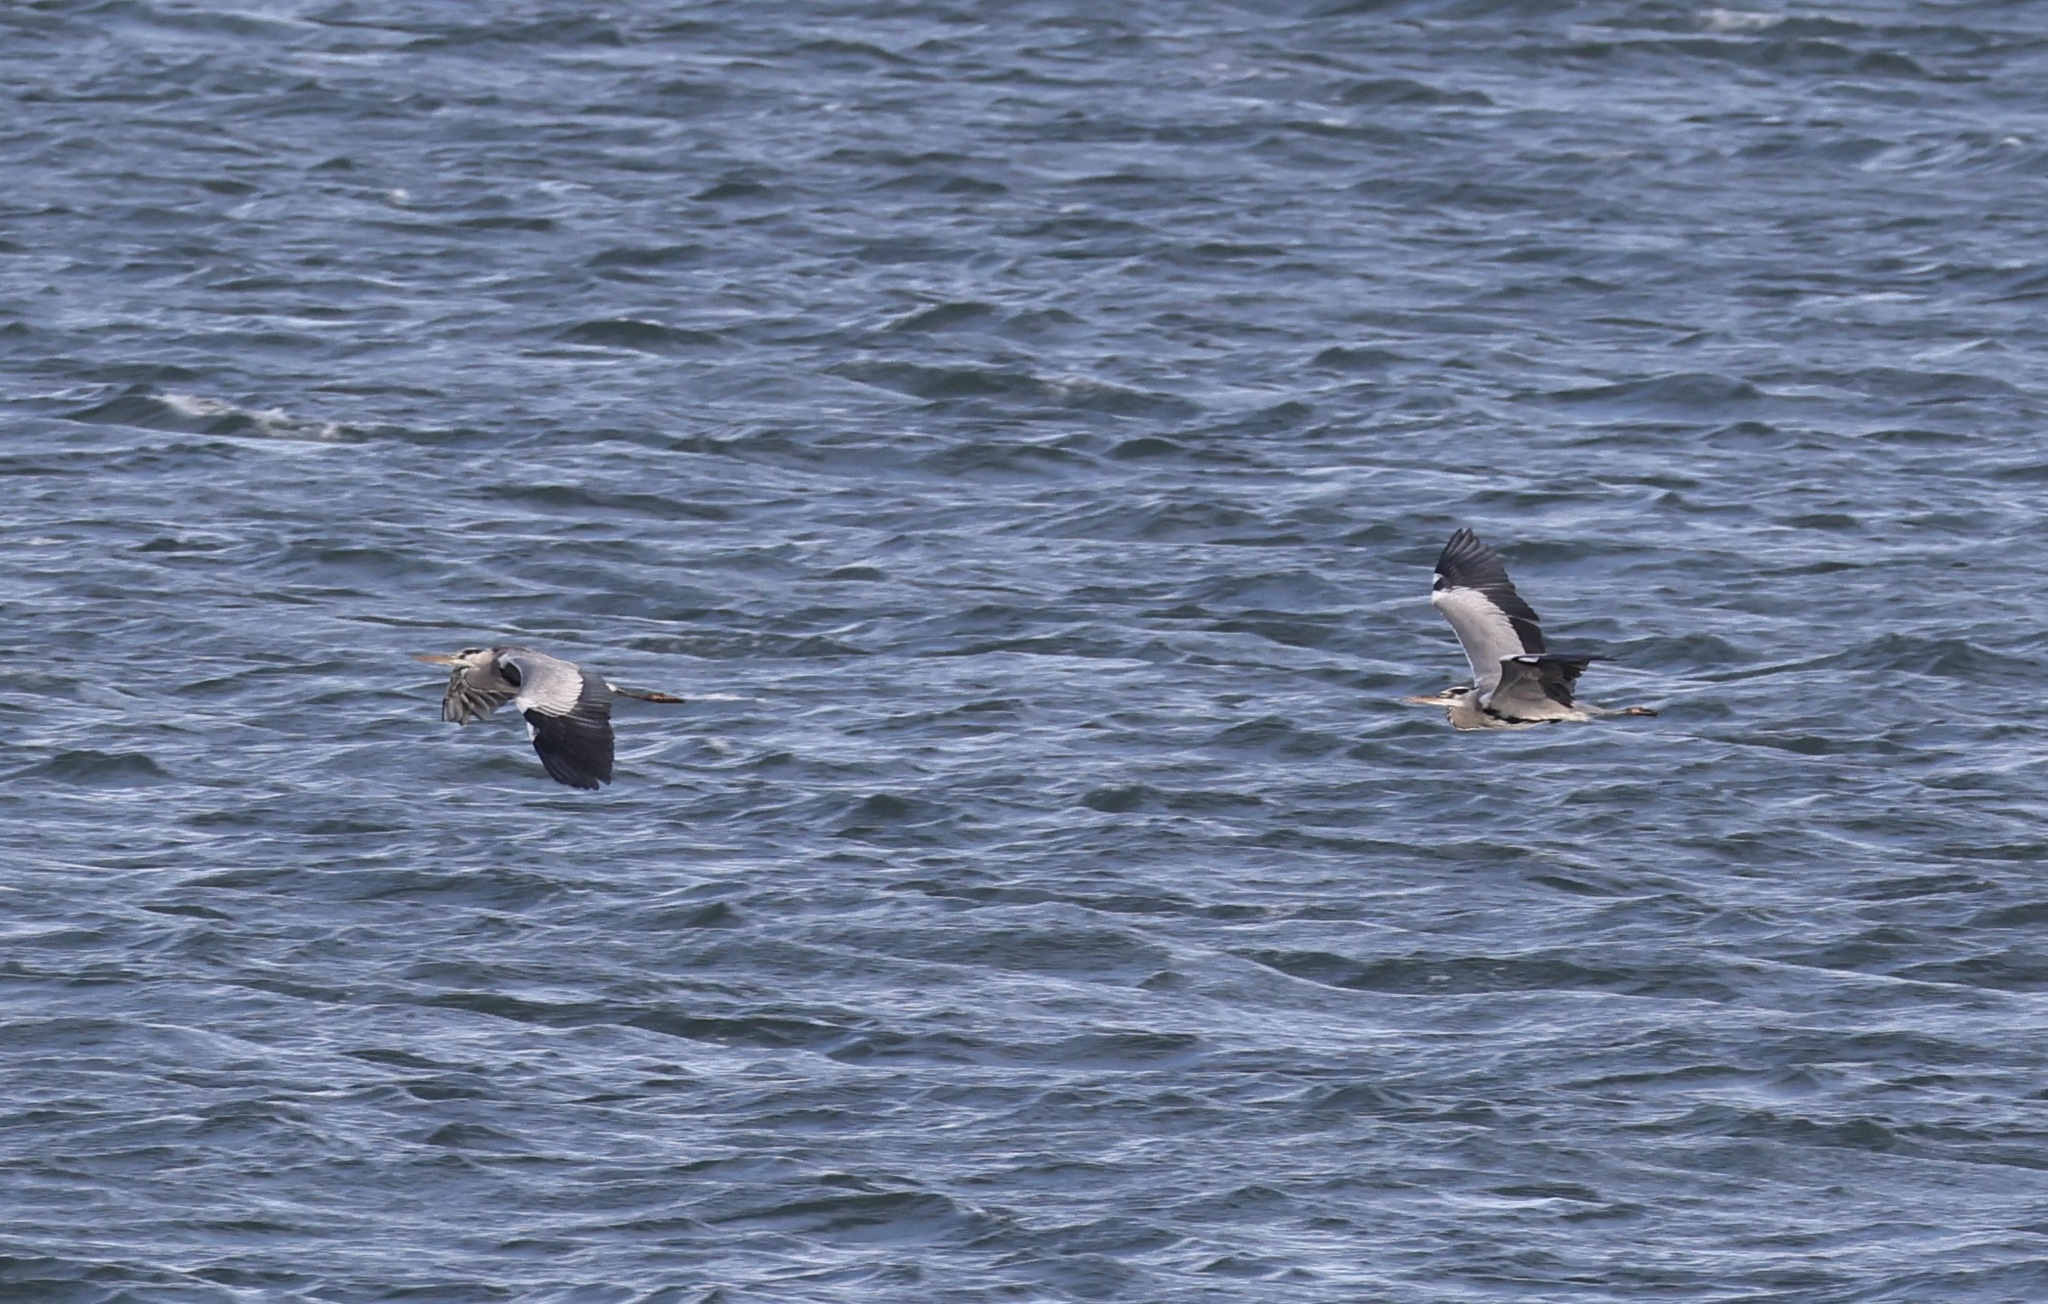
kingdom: Animalia
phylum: Chordata
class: Aves
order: Pelecaniformes
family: Ardeidae
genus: Ardea
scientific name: Ardea cinerea
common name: Grey heron
